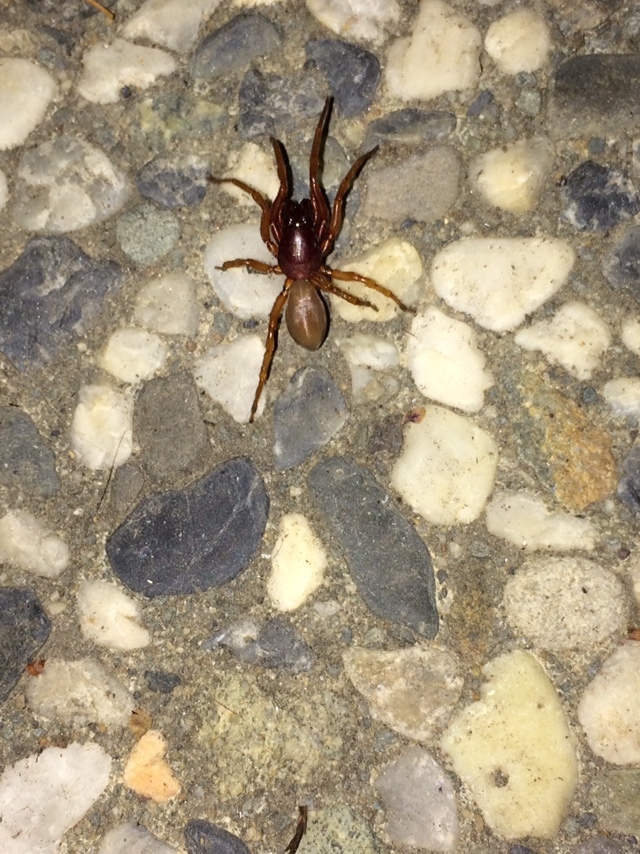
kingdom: Animalia
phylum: Arthropoda
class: Arachnida
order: Araneae
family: Dysderidae
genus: Dysdera
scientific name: Dysdera crocata
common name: Woodlouse spider
